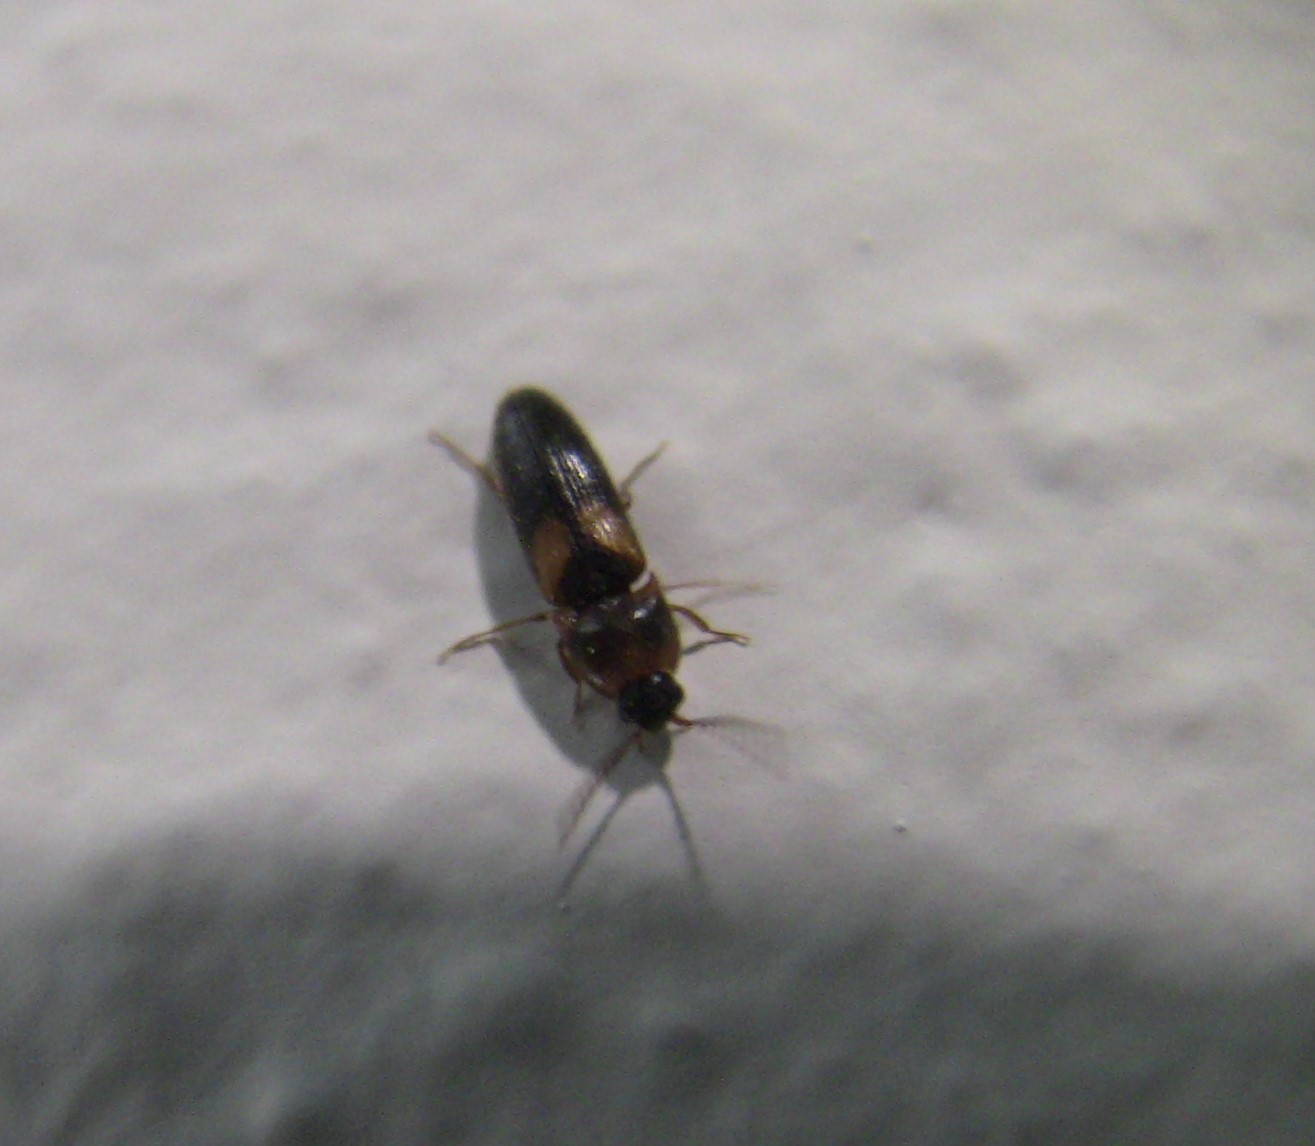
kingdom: Animalia
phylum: Arthropoda
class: Insecta
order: Coleoptera
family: Elateridae
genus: Ampedus
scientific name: Ampedus areolatus
